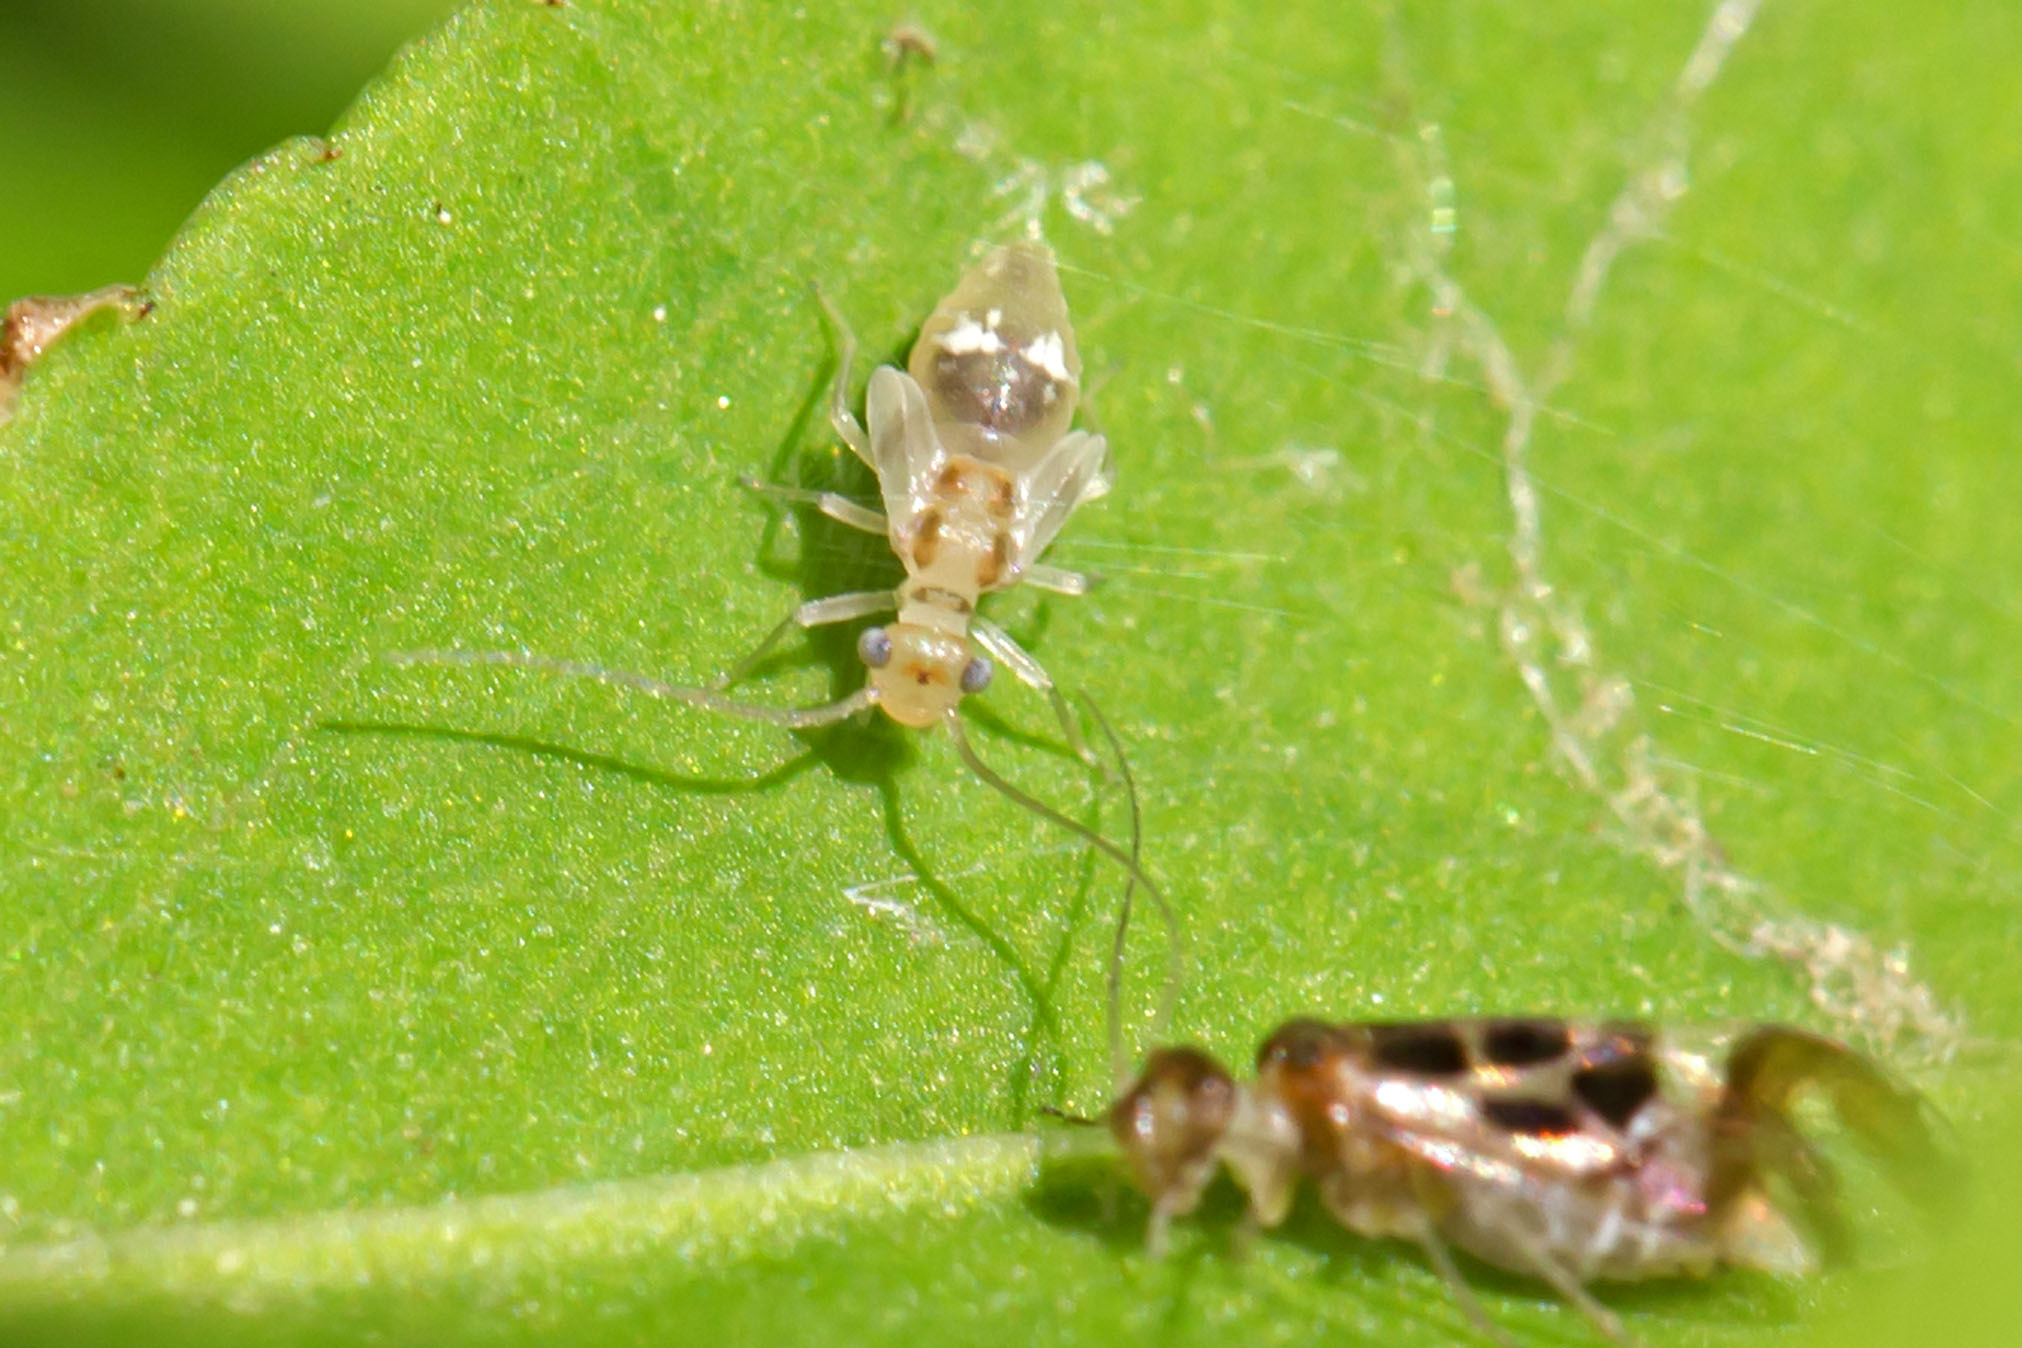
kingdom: Animalia
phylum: Arthropoda
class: Insecta
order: Psocodea
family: Stenopsocidae
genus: Graphopsocus
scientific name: Graphopsocus cruciatus
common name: Lizard bark louse
